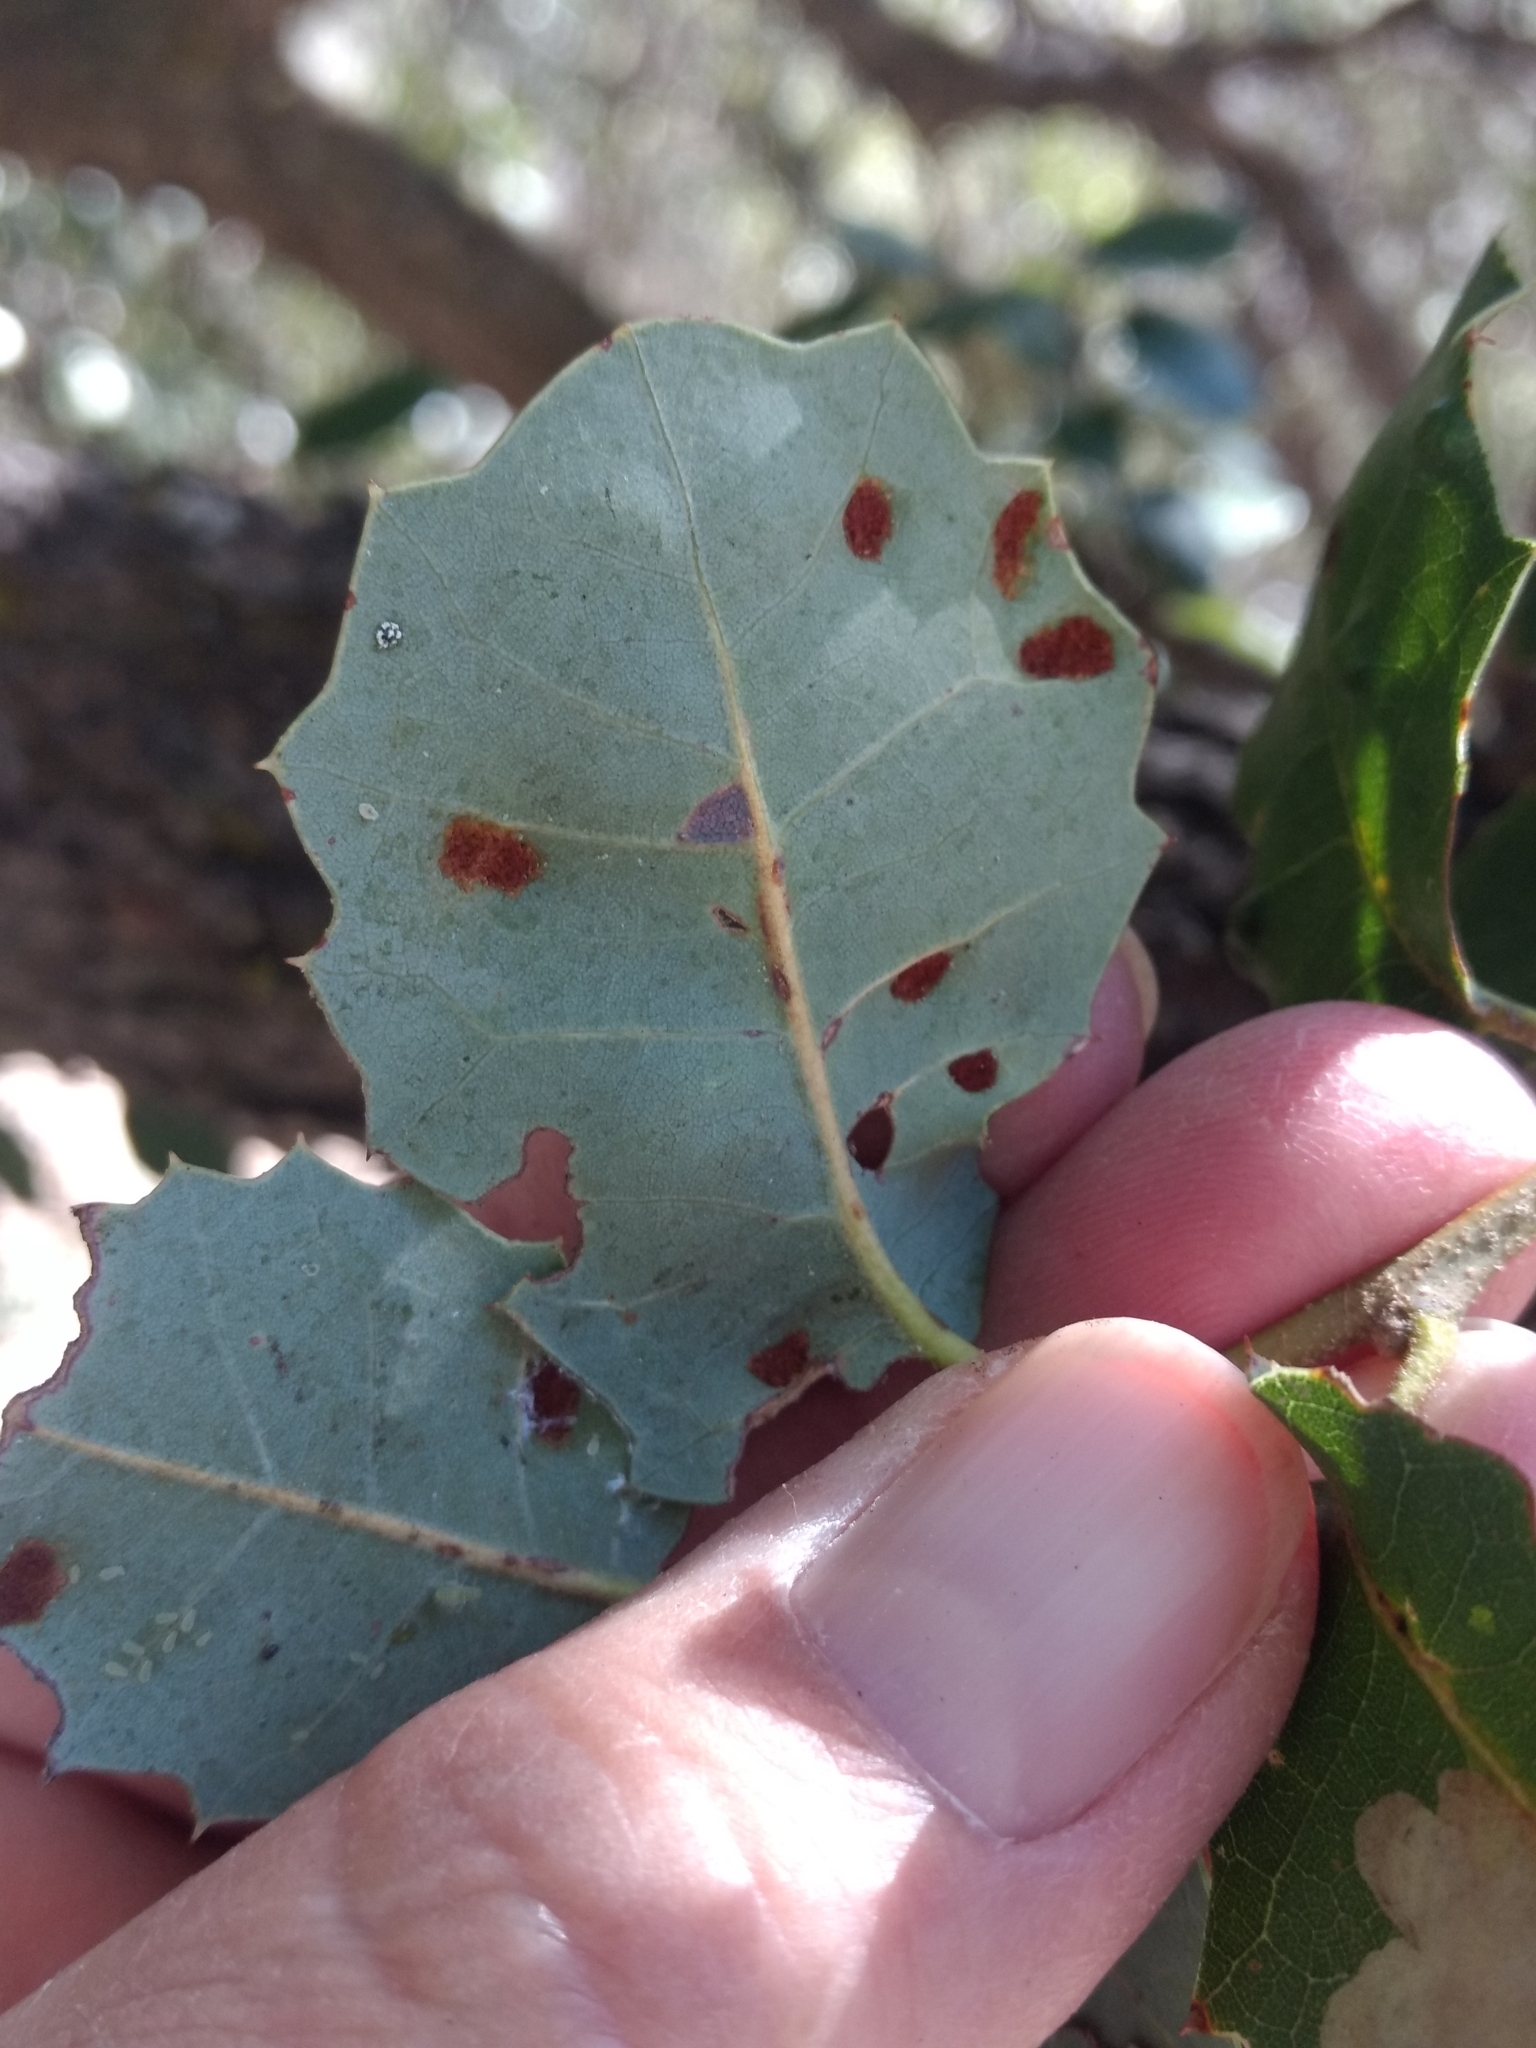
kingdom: Animalia
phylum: Arthropoda
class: Arachnida
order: Trombidiformes
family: Eriophyidae
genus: Aceria
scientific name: Aceria
